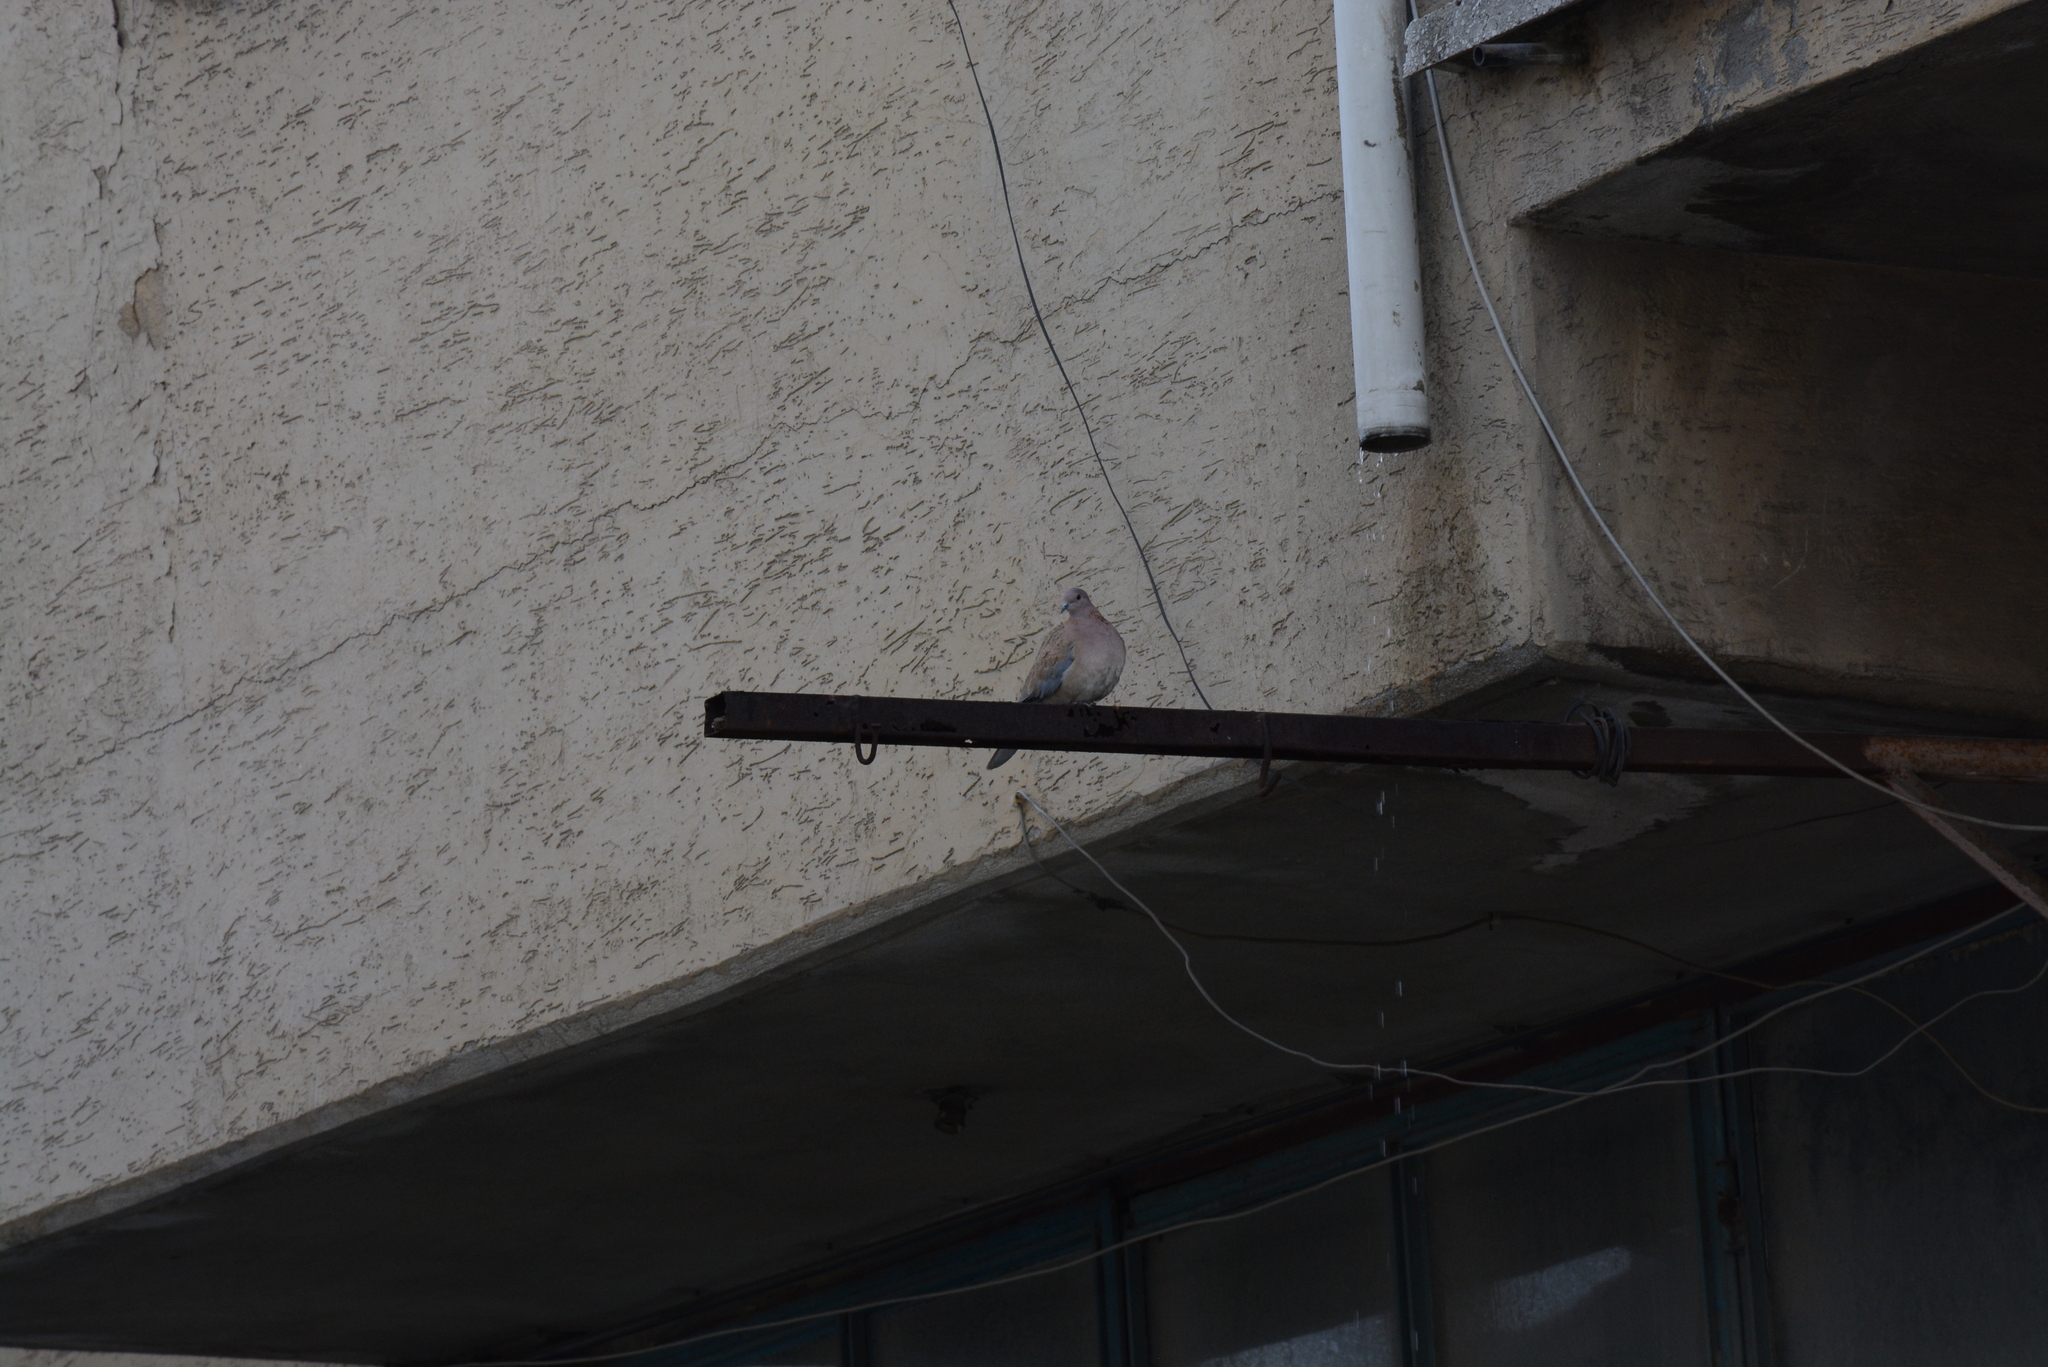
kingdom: Animalia
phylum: Chordata
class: Aves
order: Columbiformes
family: Columbidae
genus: Spilopelia
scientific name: Spilopelia senegalensis
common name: Laughing dove
